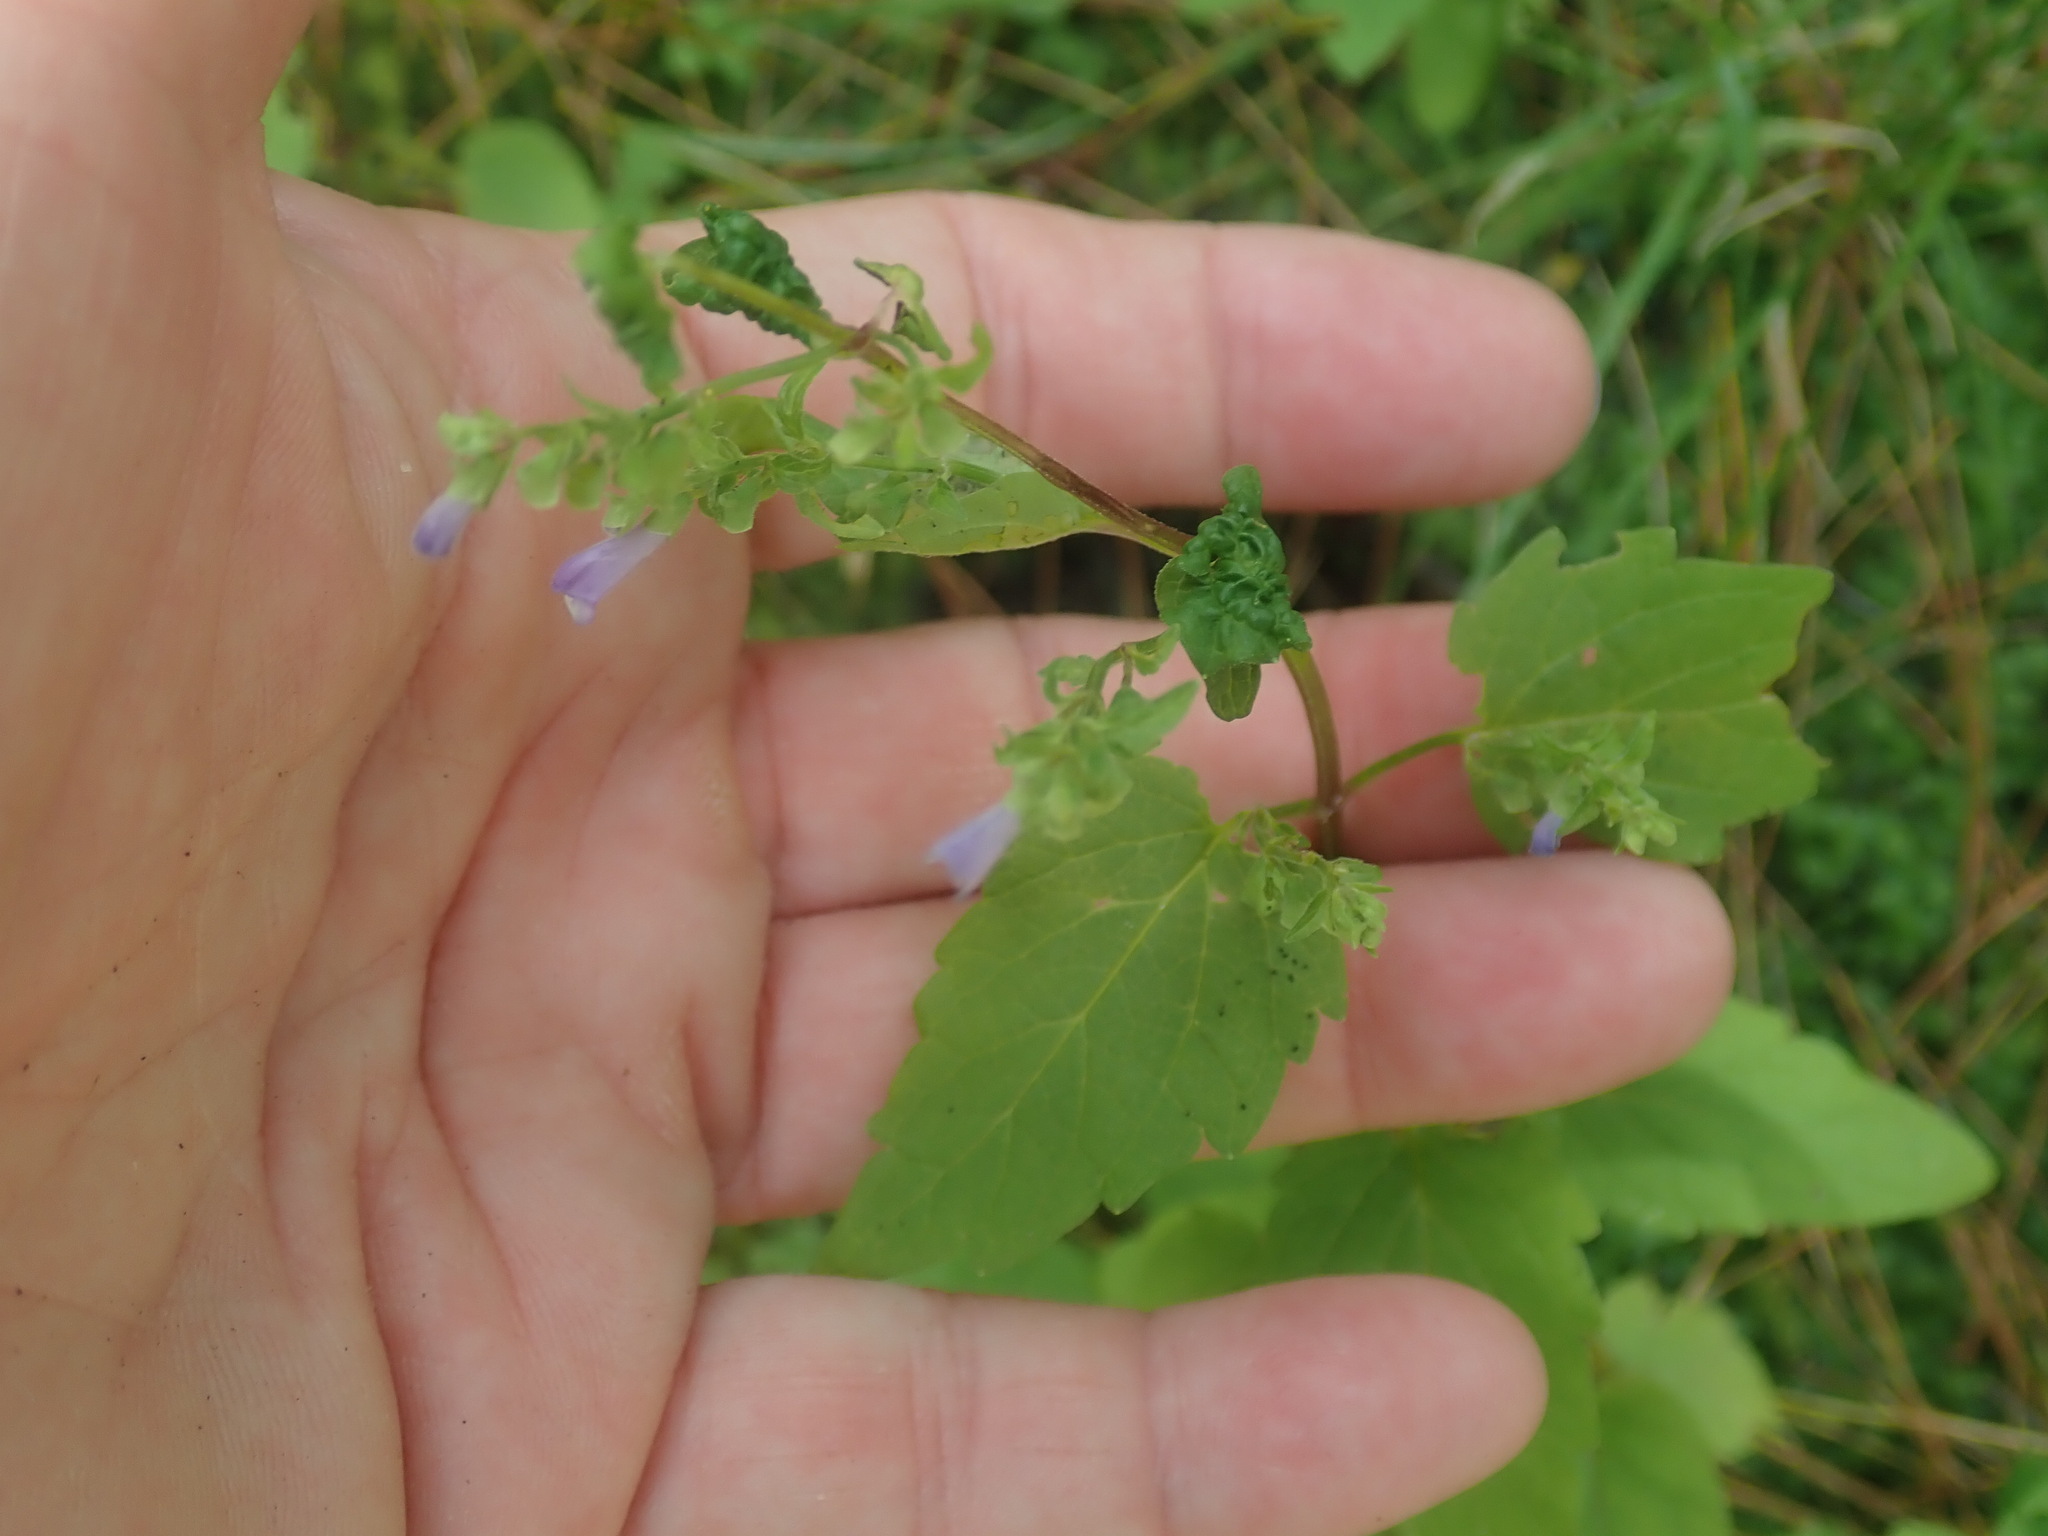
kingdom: Plantae
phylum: Tracheophyta
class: Magnoliopsida
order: Lamiales
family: Lamiaceae
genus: Scutellaria
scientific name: Scutellaria lateriflora
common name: Blue skullcap
